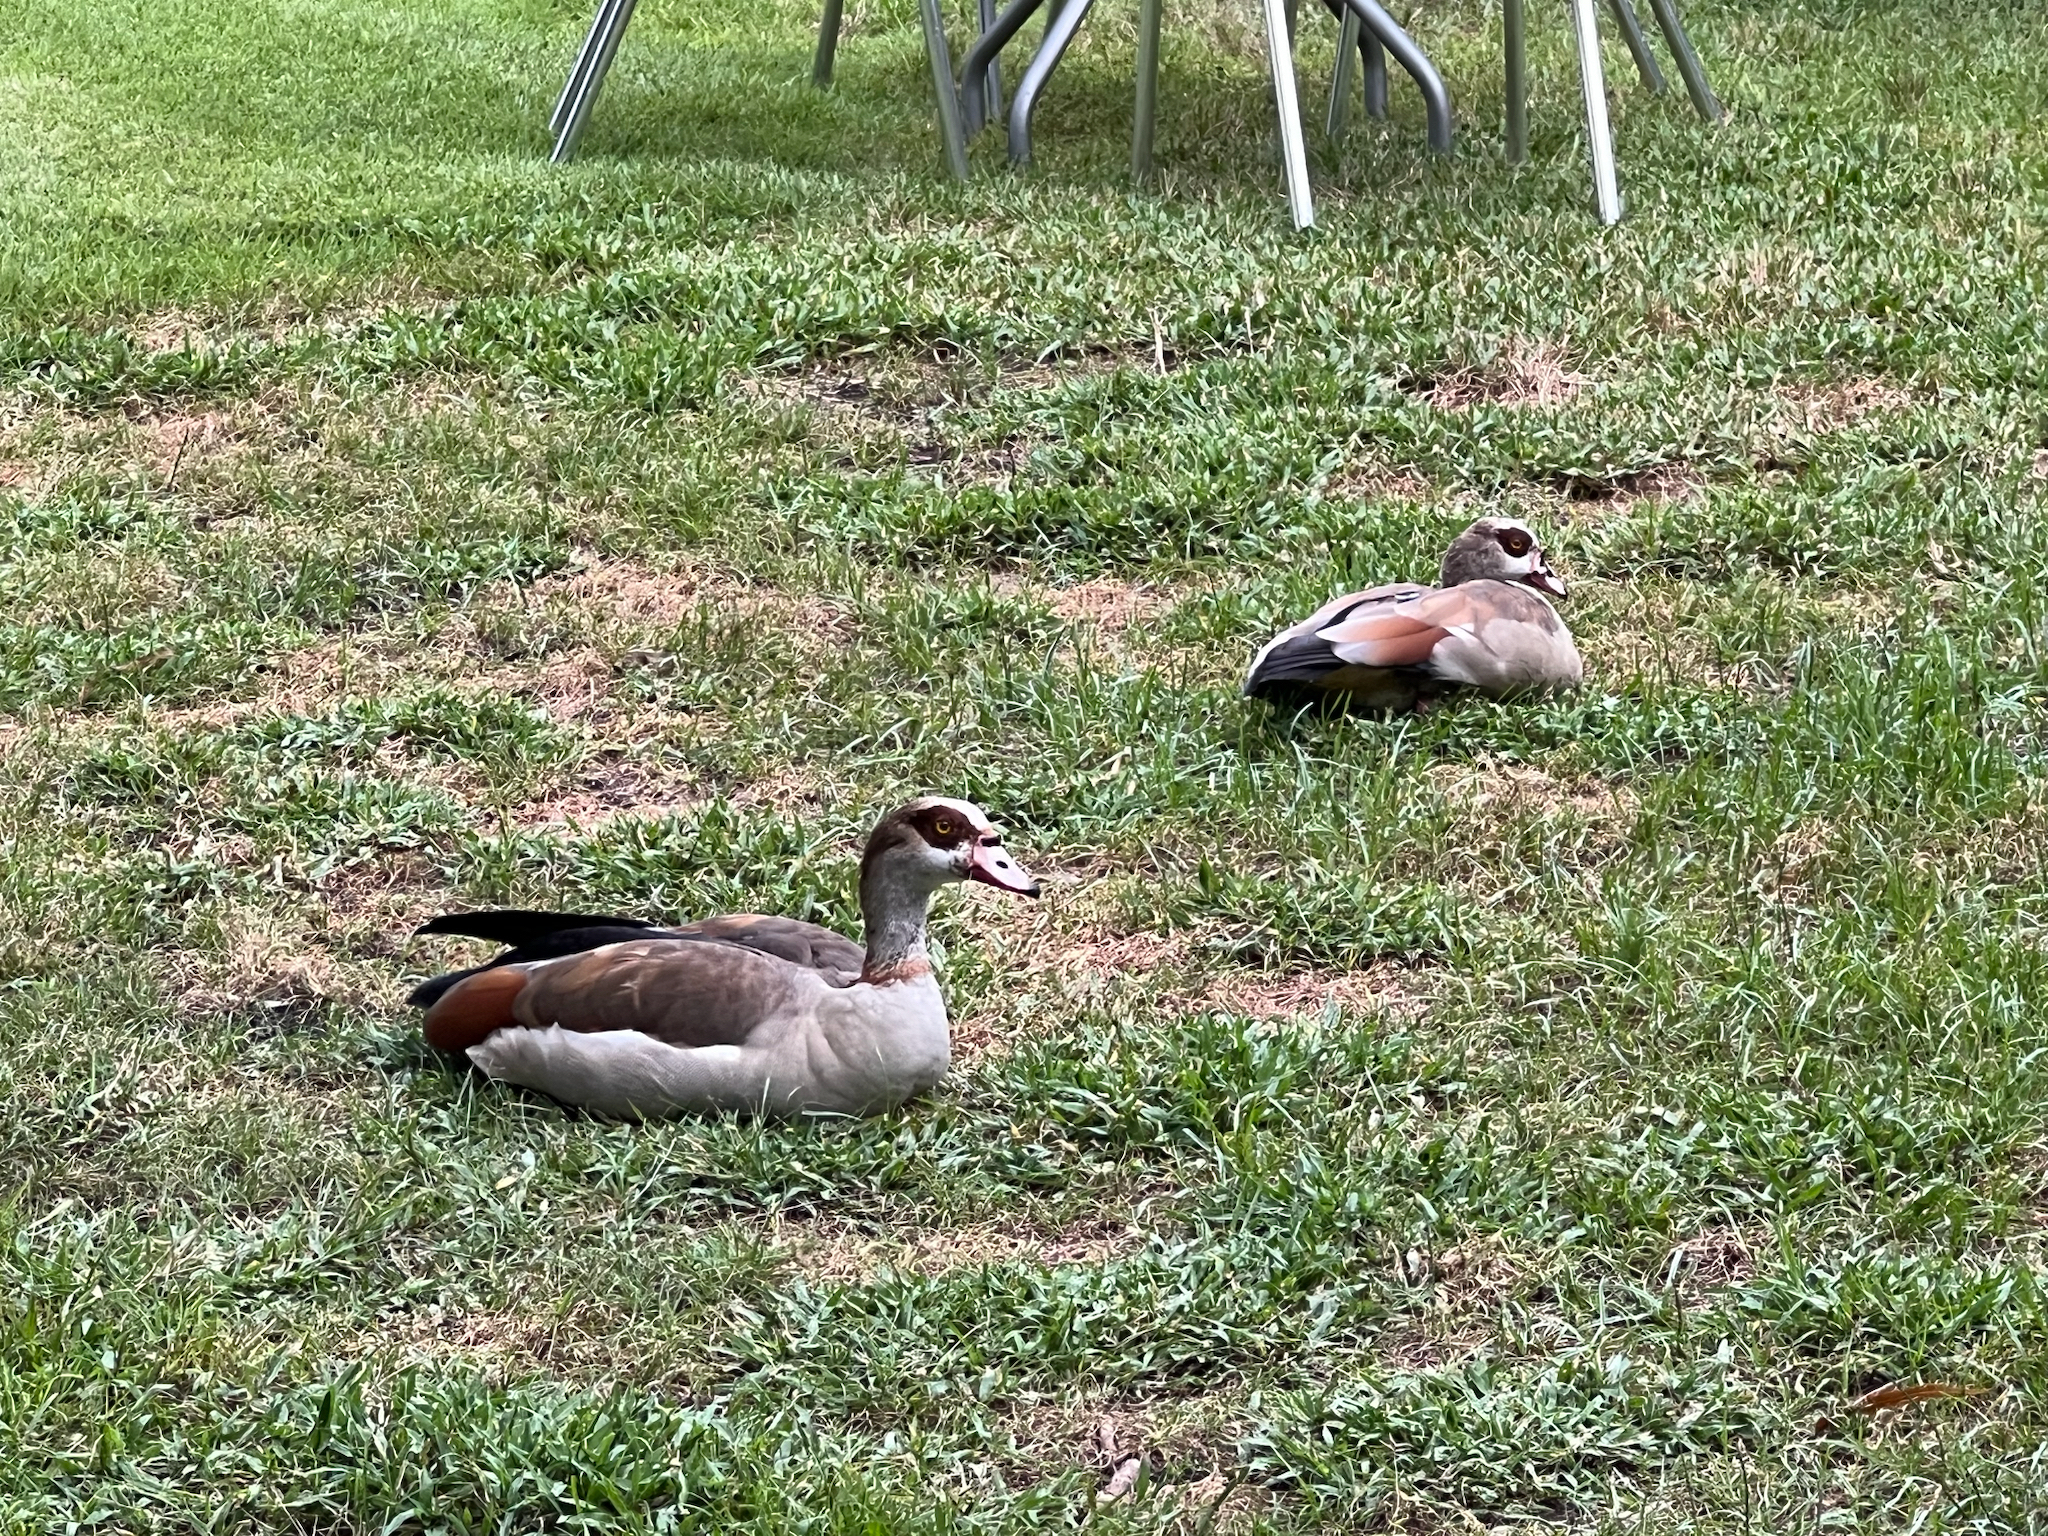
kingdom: Animalia
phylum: Chordata
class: Aves
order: Anseriformes
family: Anatidae
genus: Alopochen
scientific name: Alopochen aegyptiaca
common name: Egyptian goose
